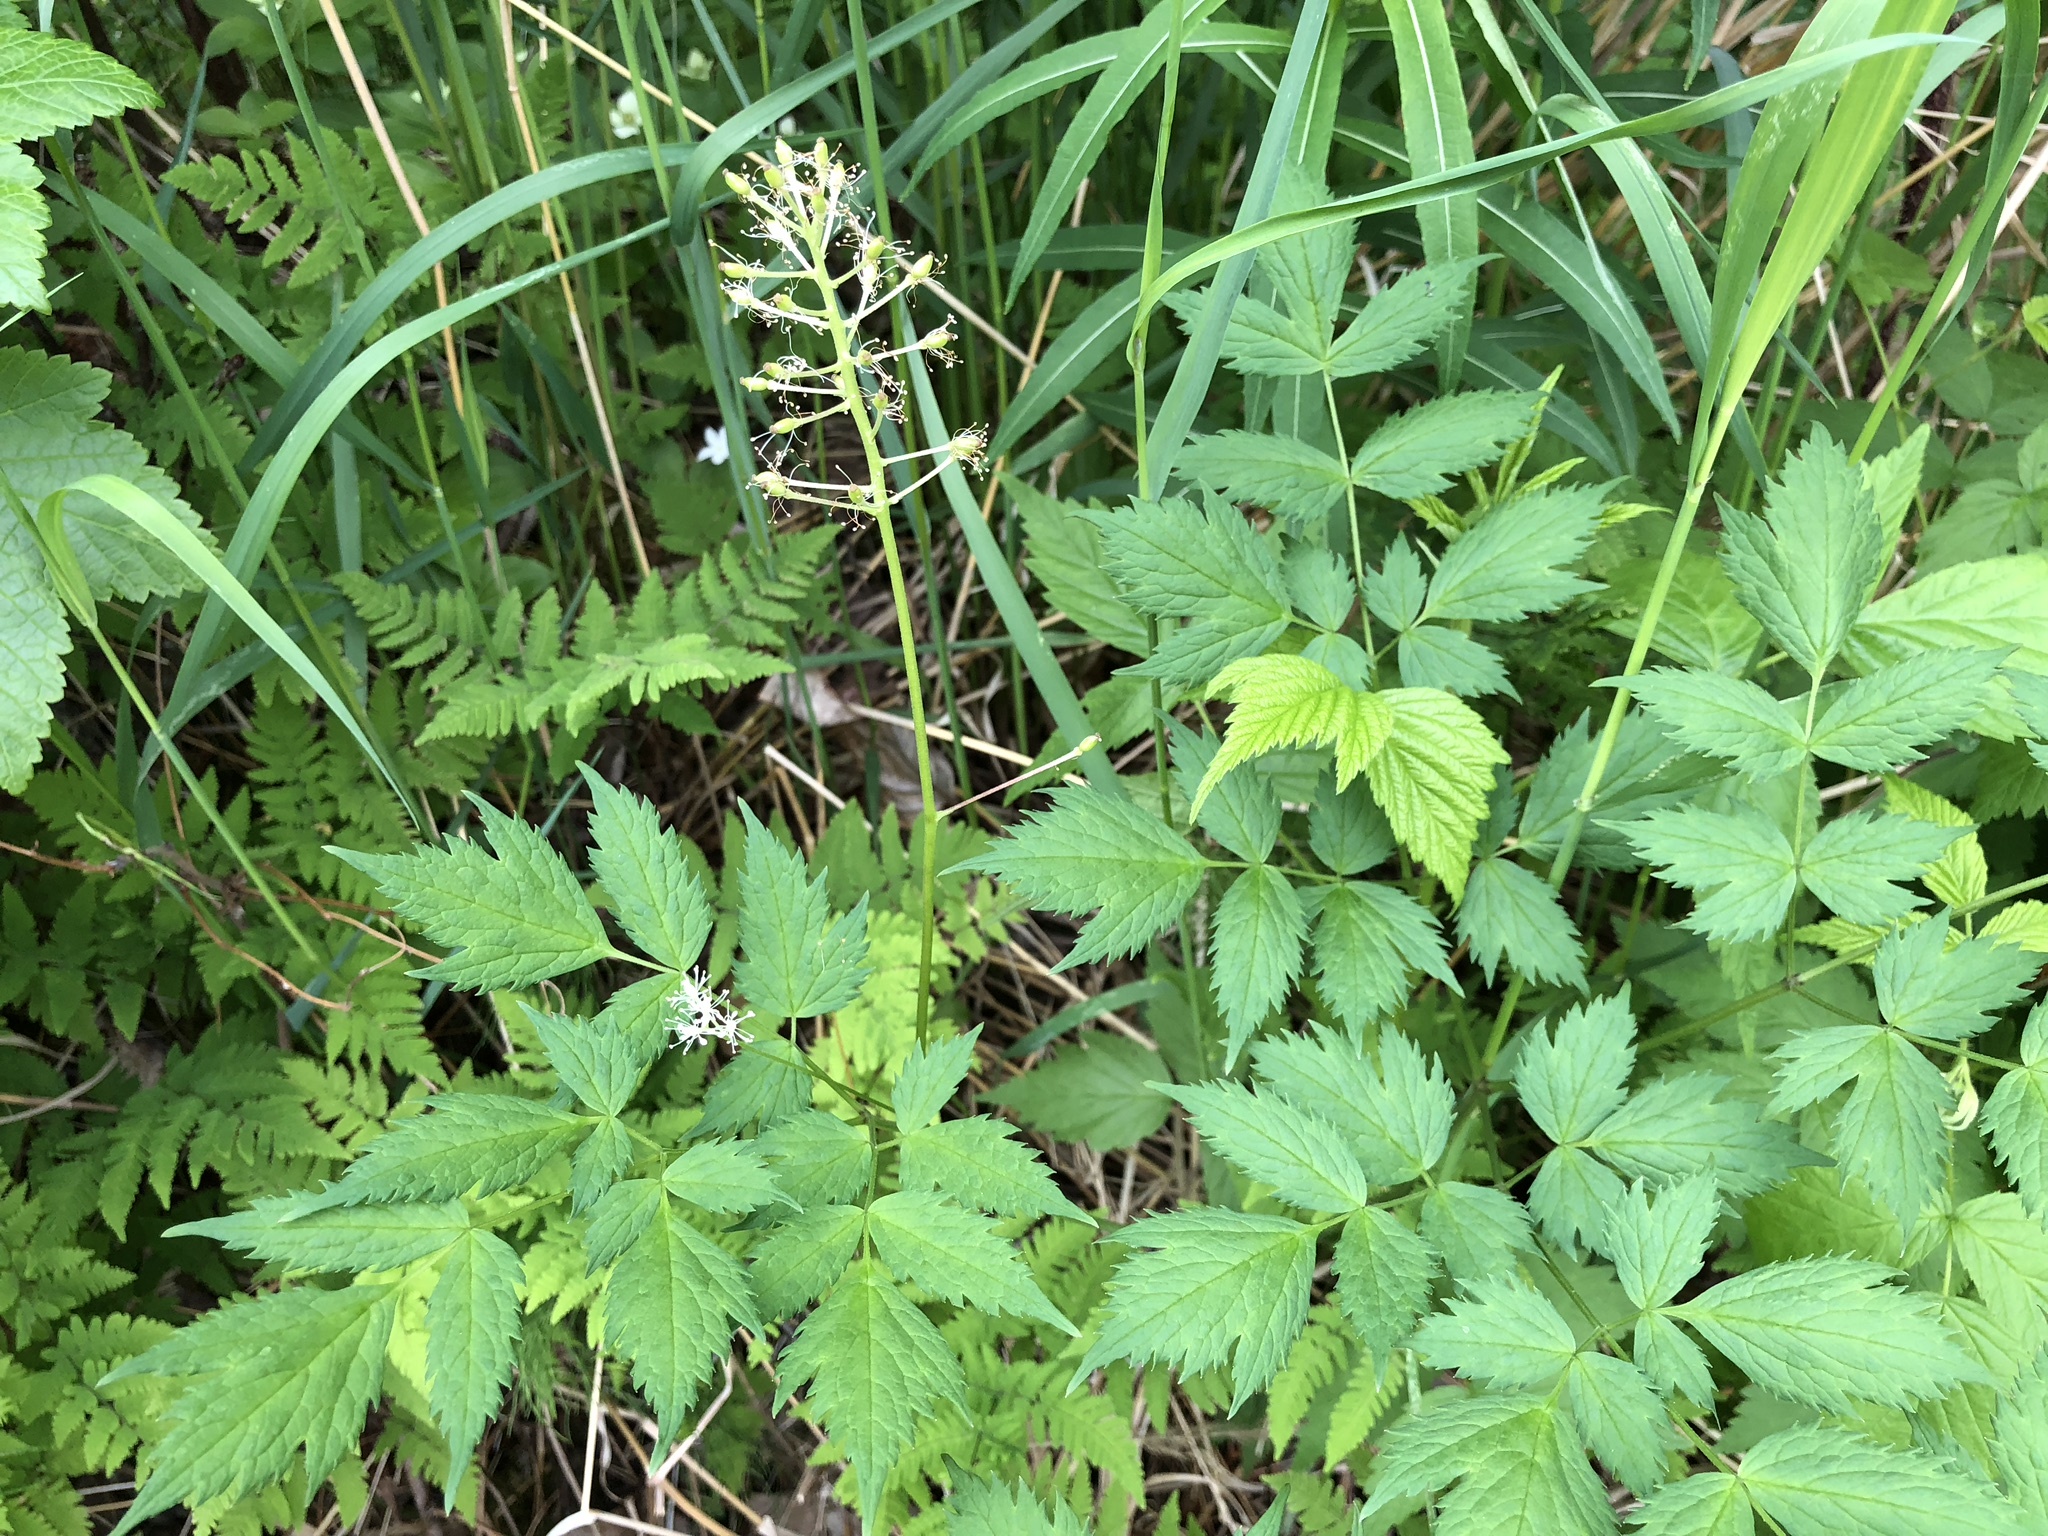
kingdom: Plantae
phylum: Tracheophyta
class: Magnoliopsida
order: Ranunculales
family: Ranunculaceae
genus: Actaea
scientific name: Actaea rubra
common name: Red baneberry
